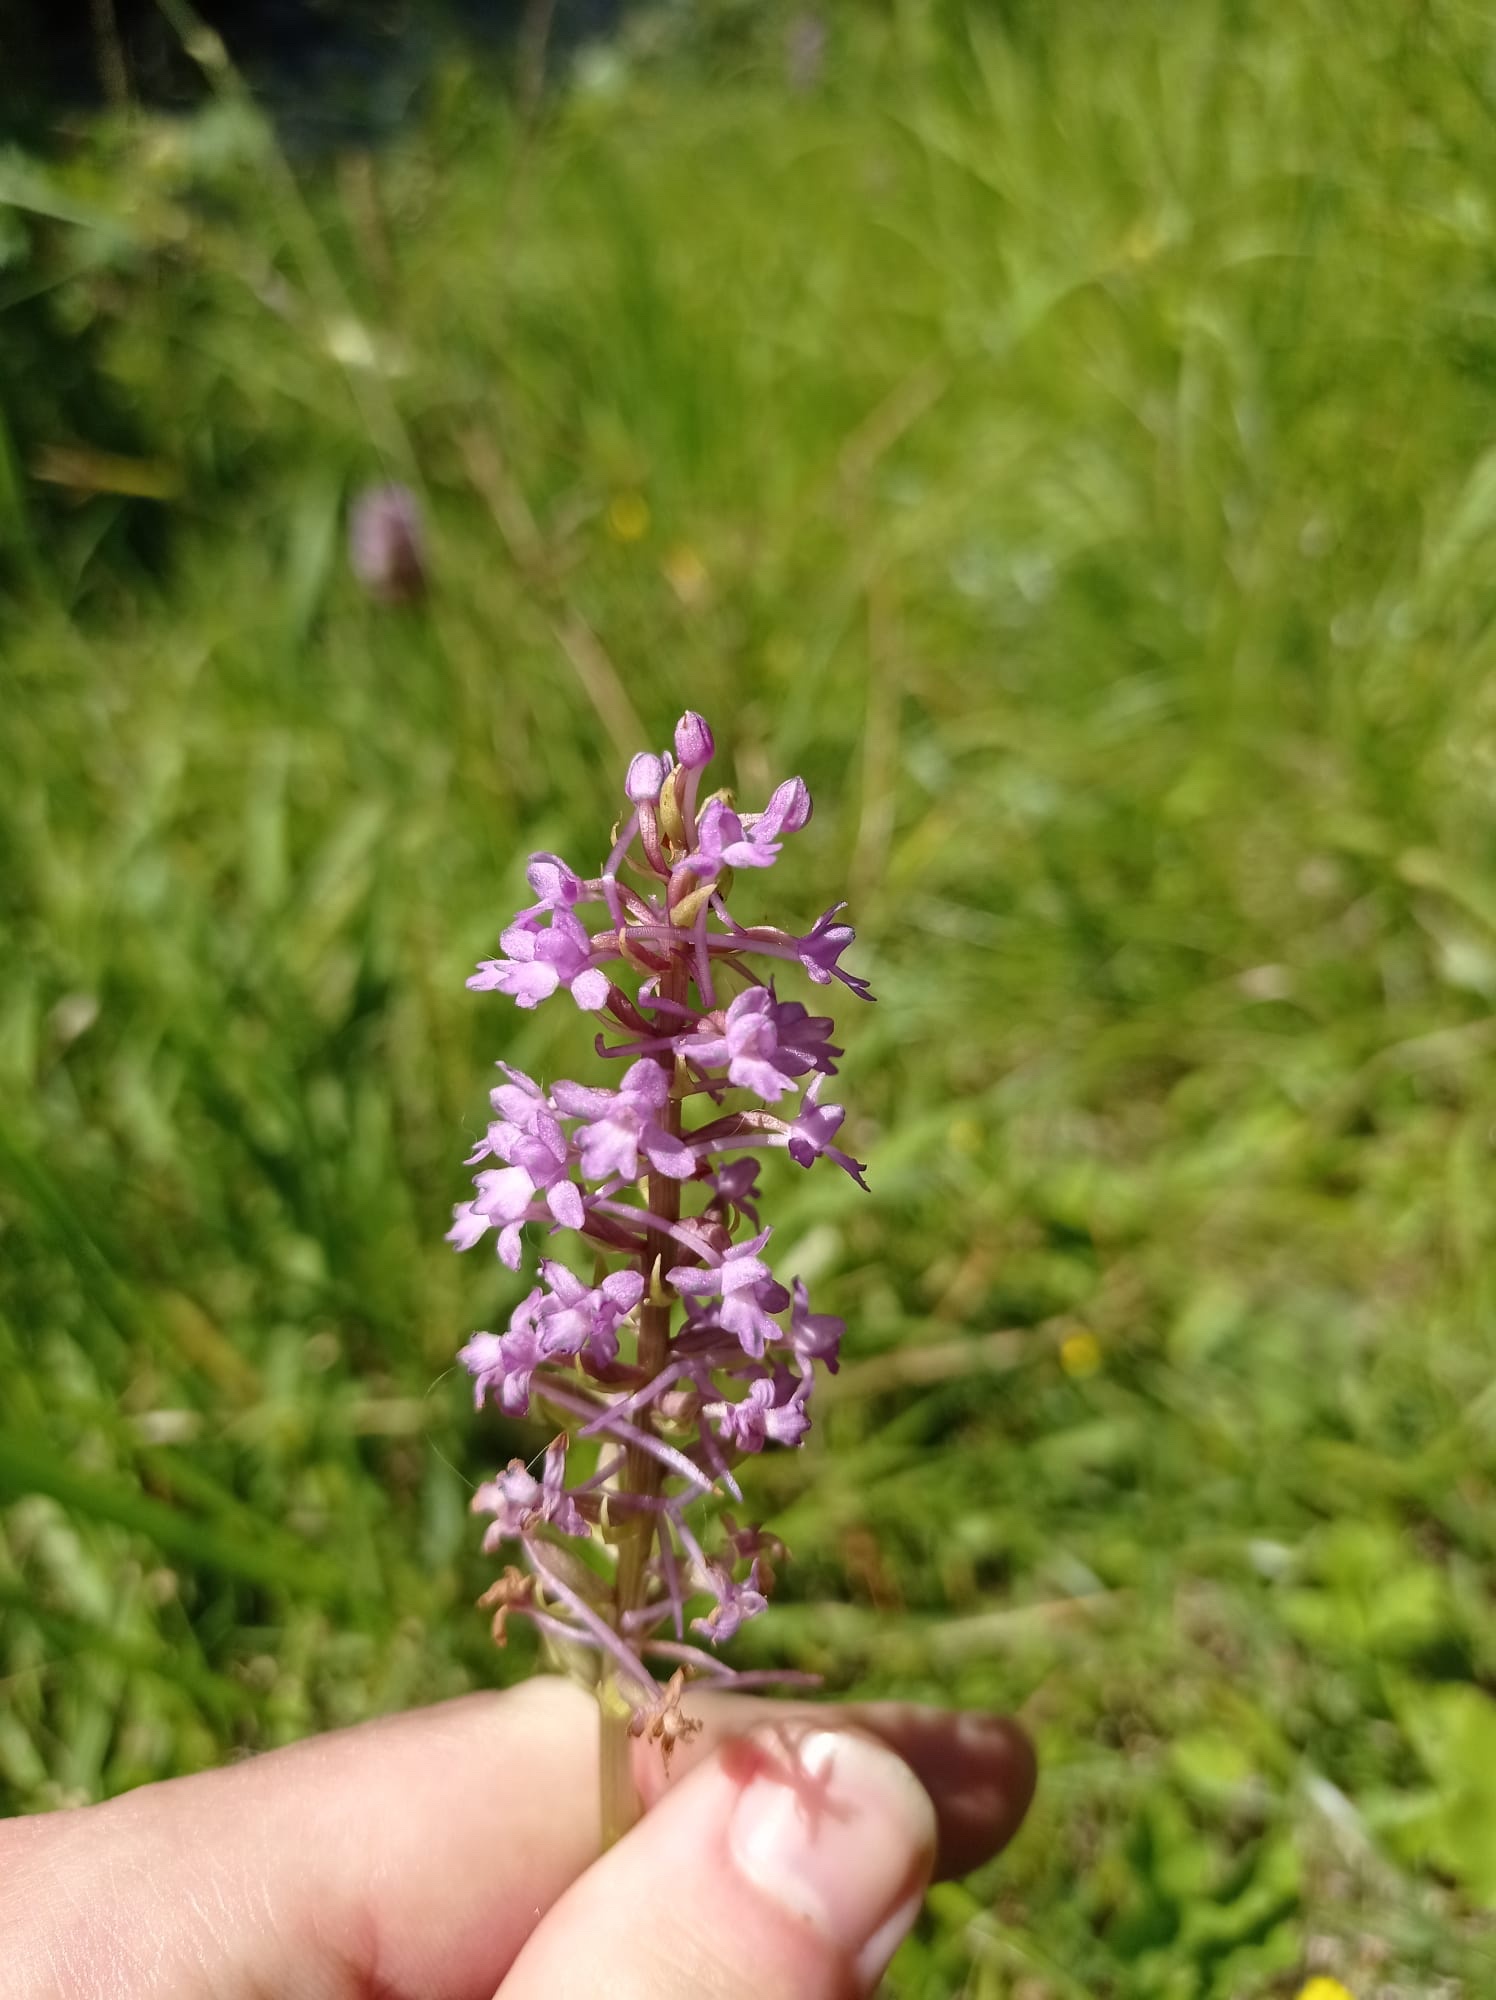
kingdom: Plantae
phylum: Tracheophyta
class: Liliopsida
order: Asparagales
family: Orchidaceae
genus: Gymnadenia
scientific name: Gymnadenia conopsea
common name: Fragrant orchid
